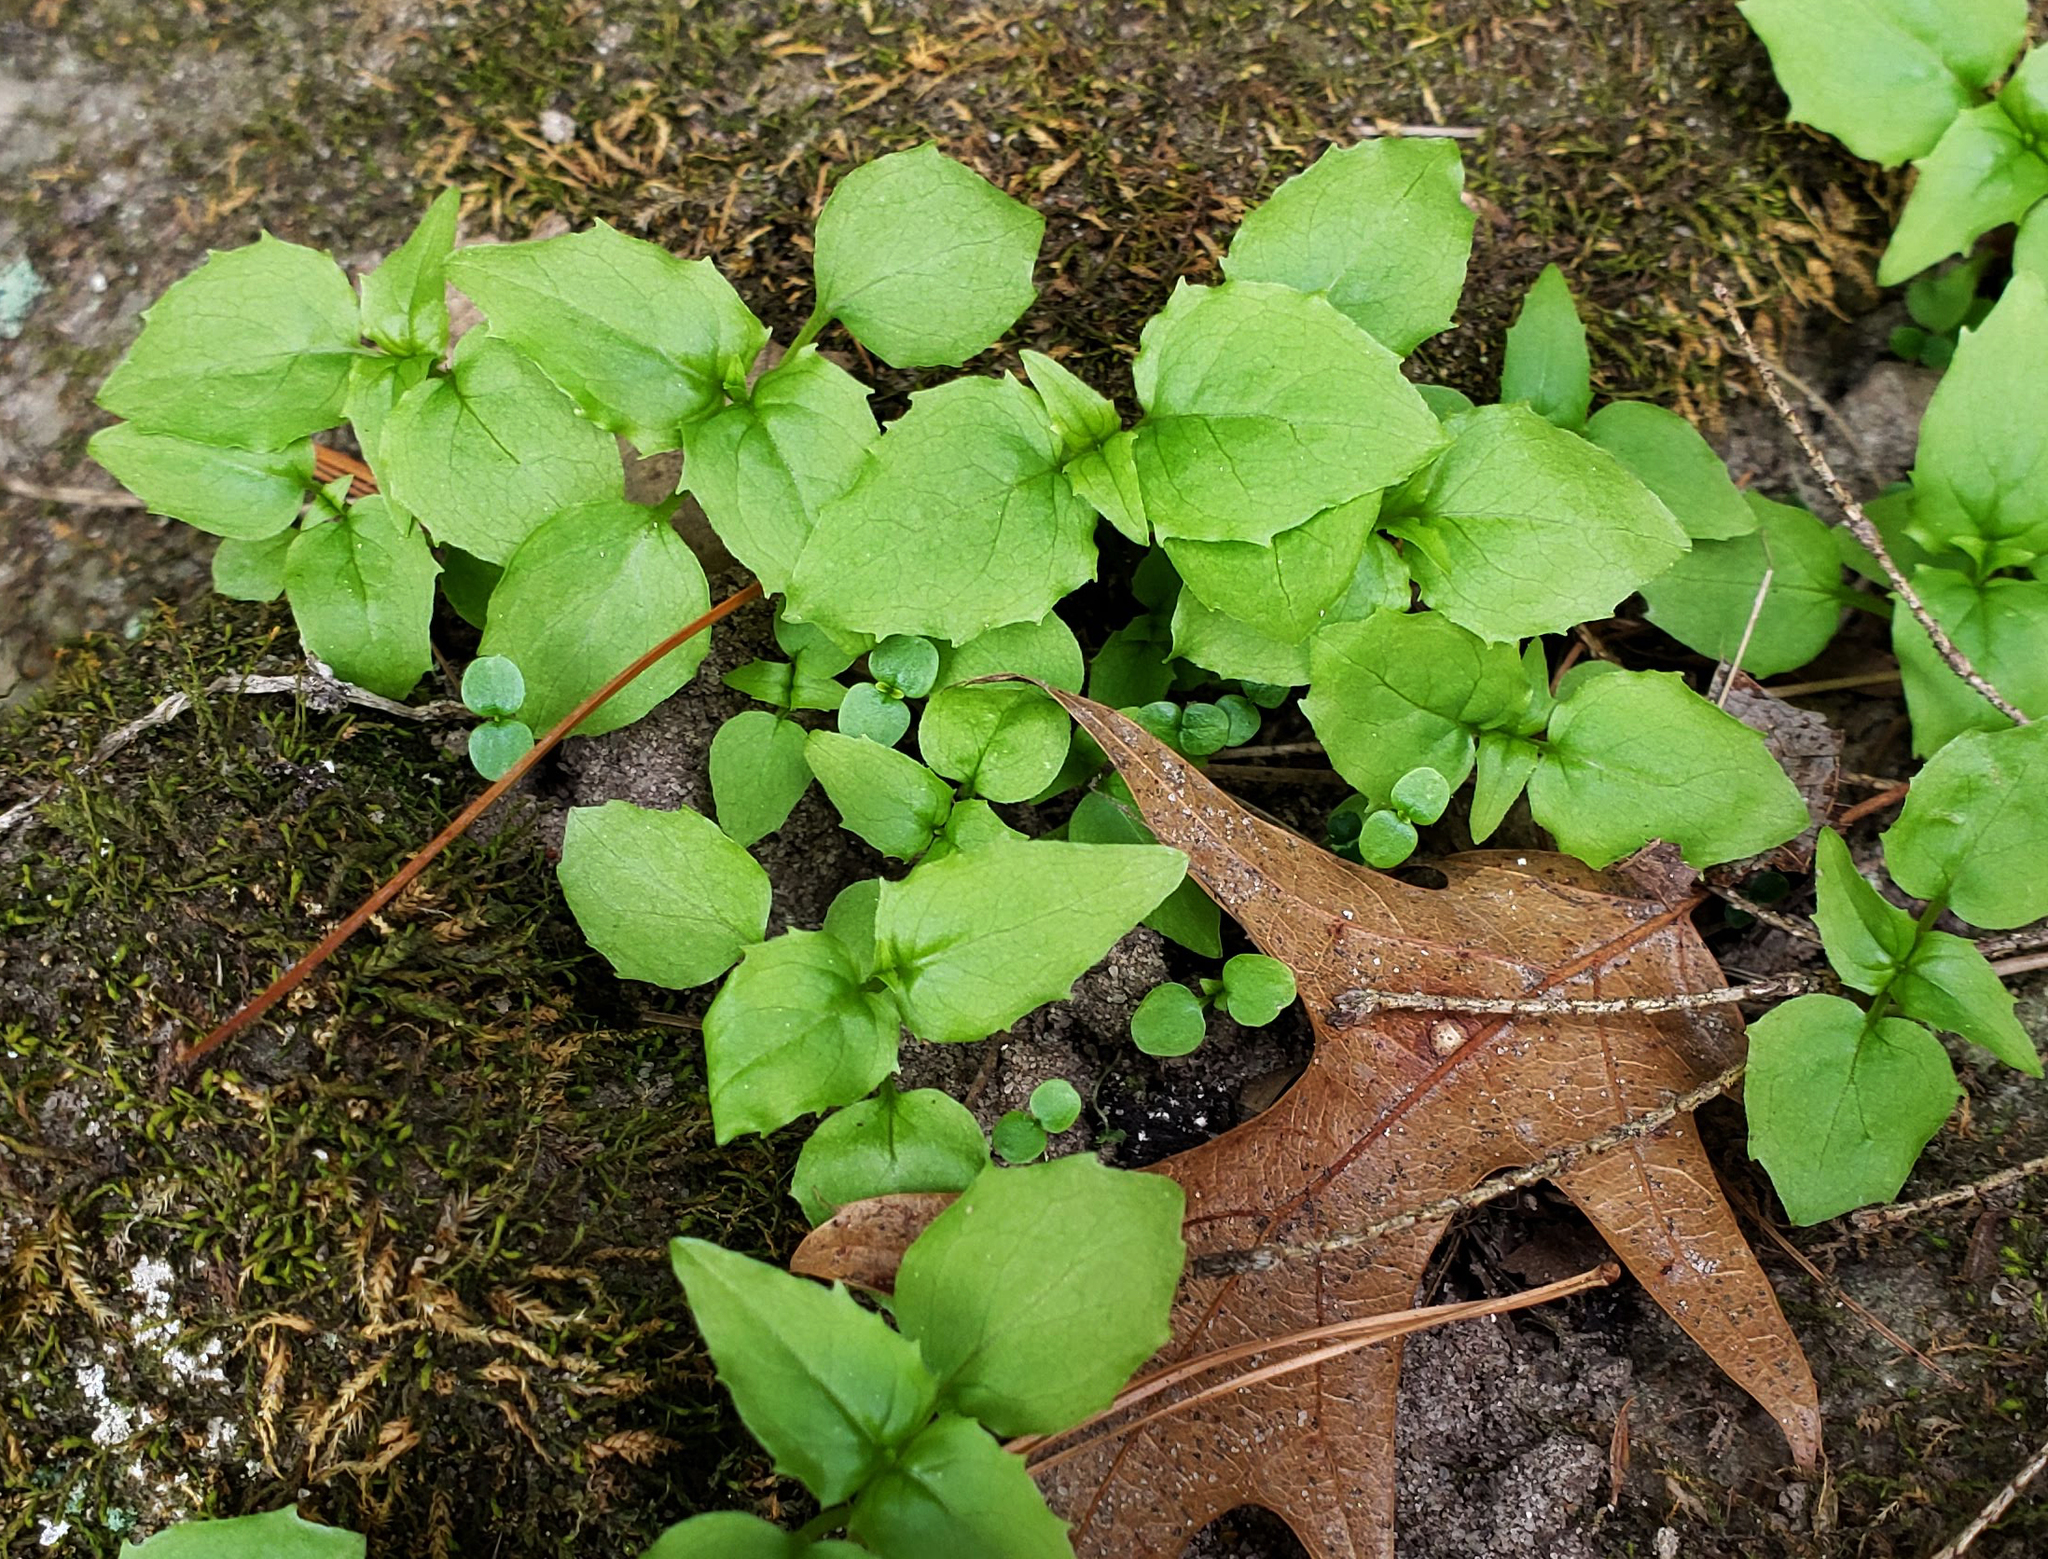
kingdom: Plantae
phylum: Tracheophyta
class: Magnoliopsida
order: Myrtales
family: Onagraceae
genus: Circaea
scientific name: Circaea alpina
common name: Alpine enchanter's-nightshade
